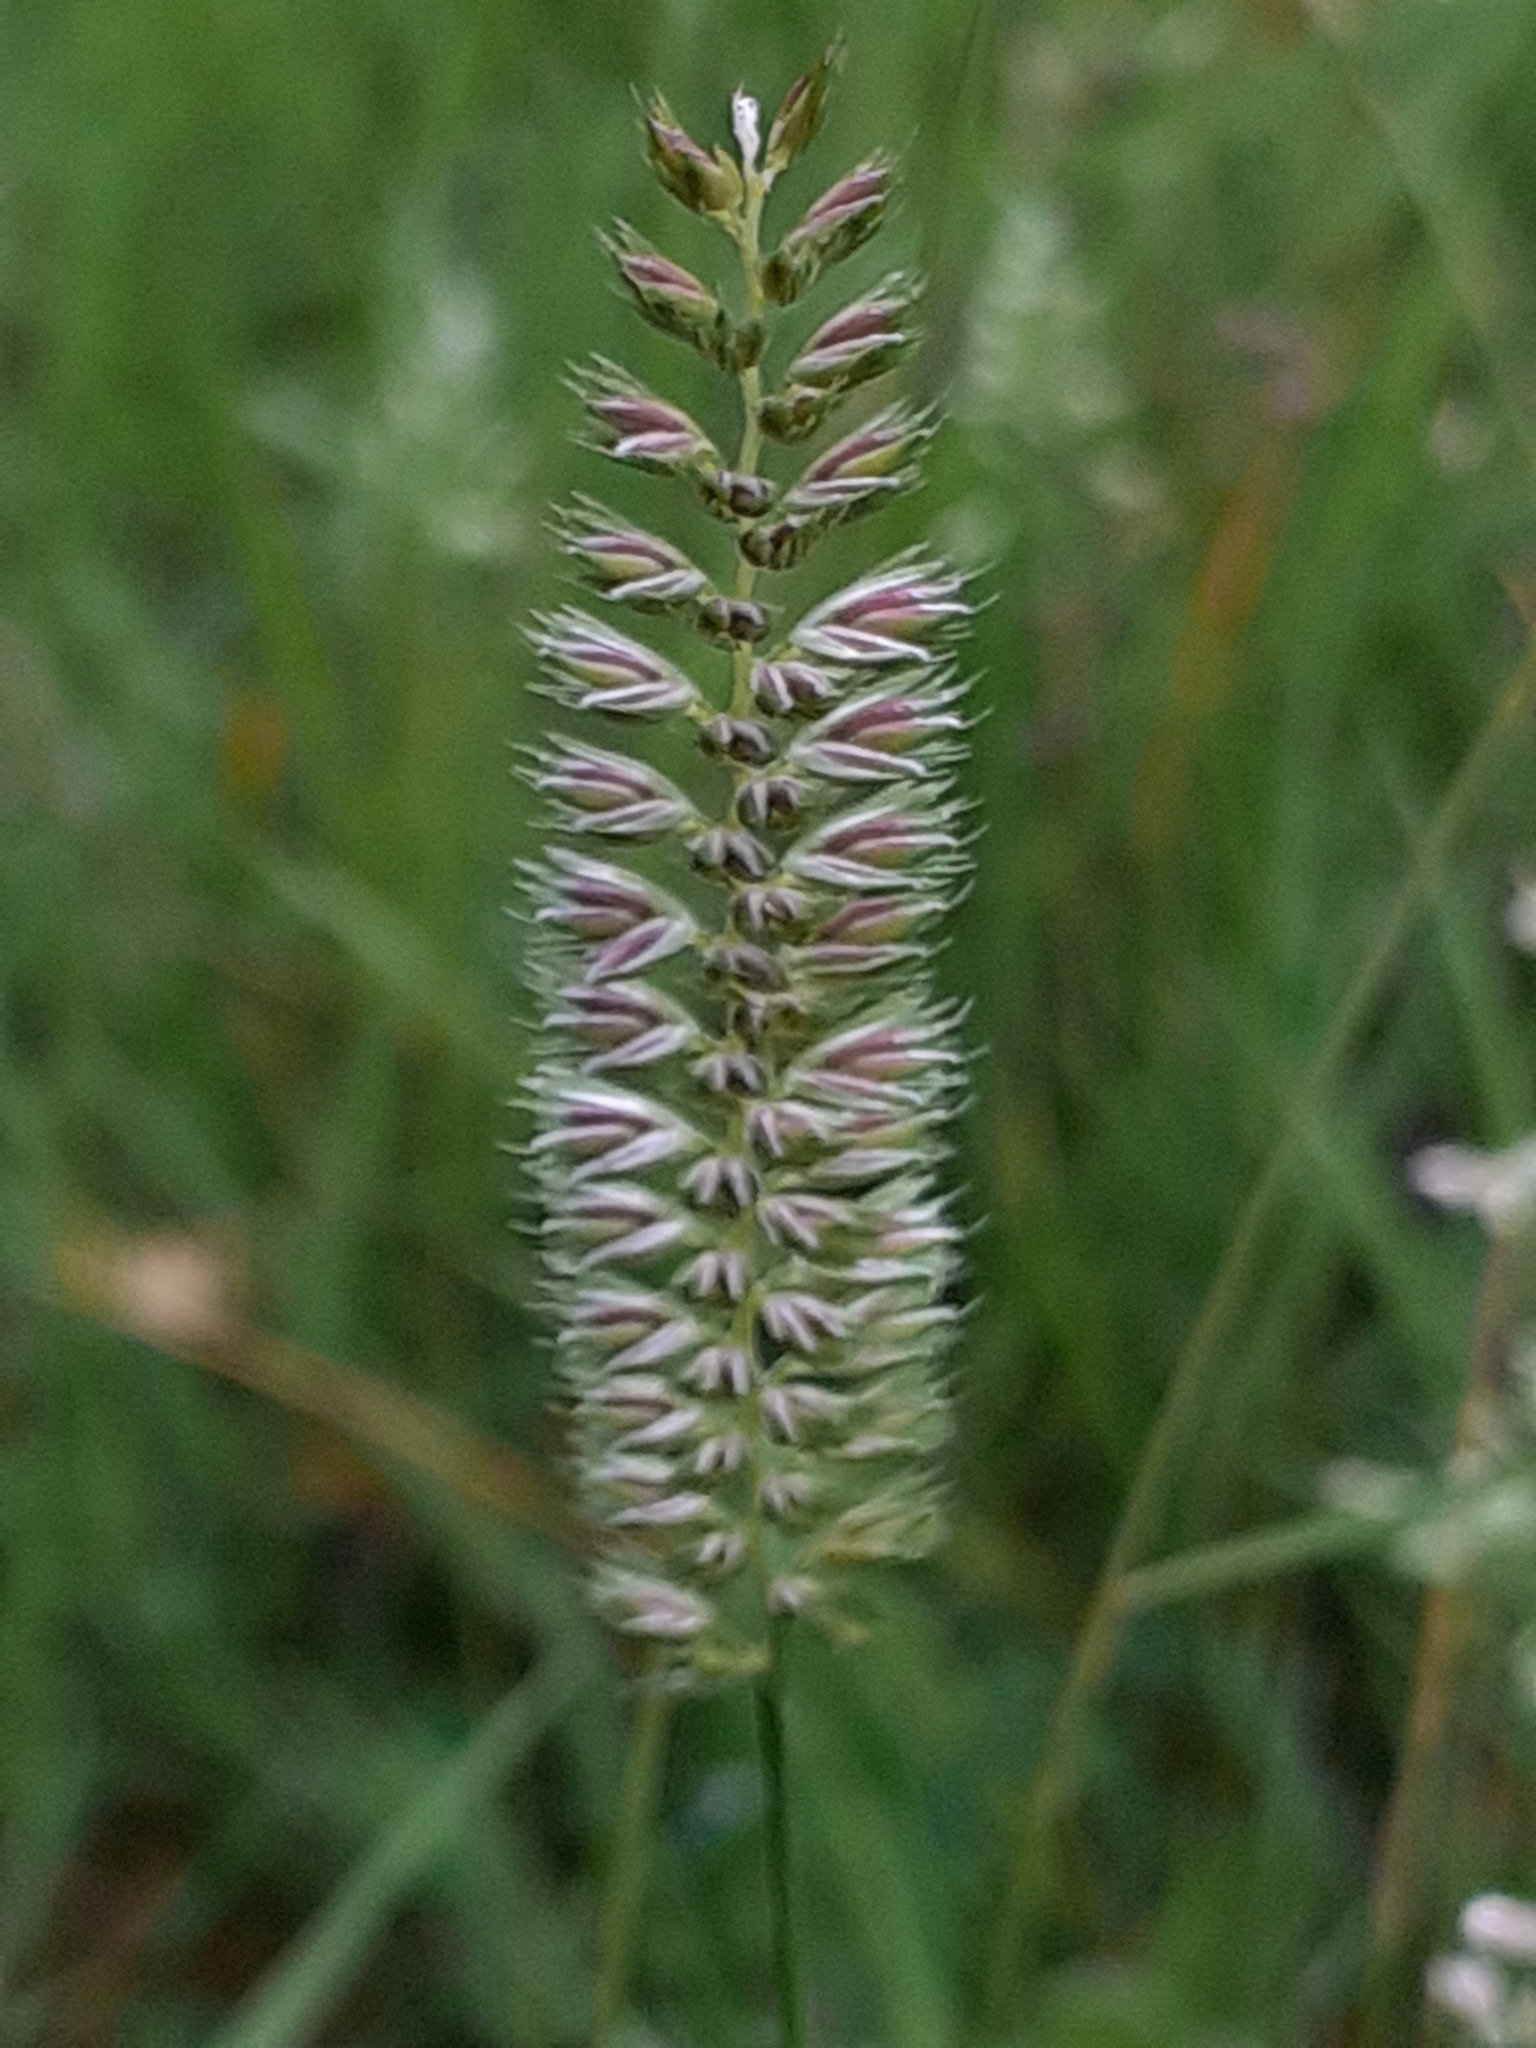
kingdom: Plantae
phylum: Tracheophyta
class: Liliopsida
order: Poales
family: Poaceae
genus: Cynosurus
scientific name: Cynosurus cristatus
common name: Crested dog's-tail
